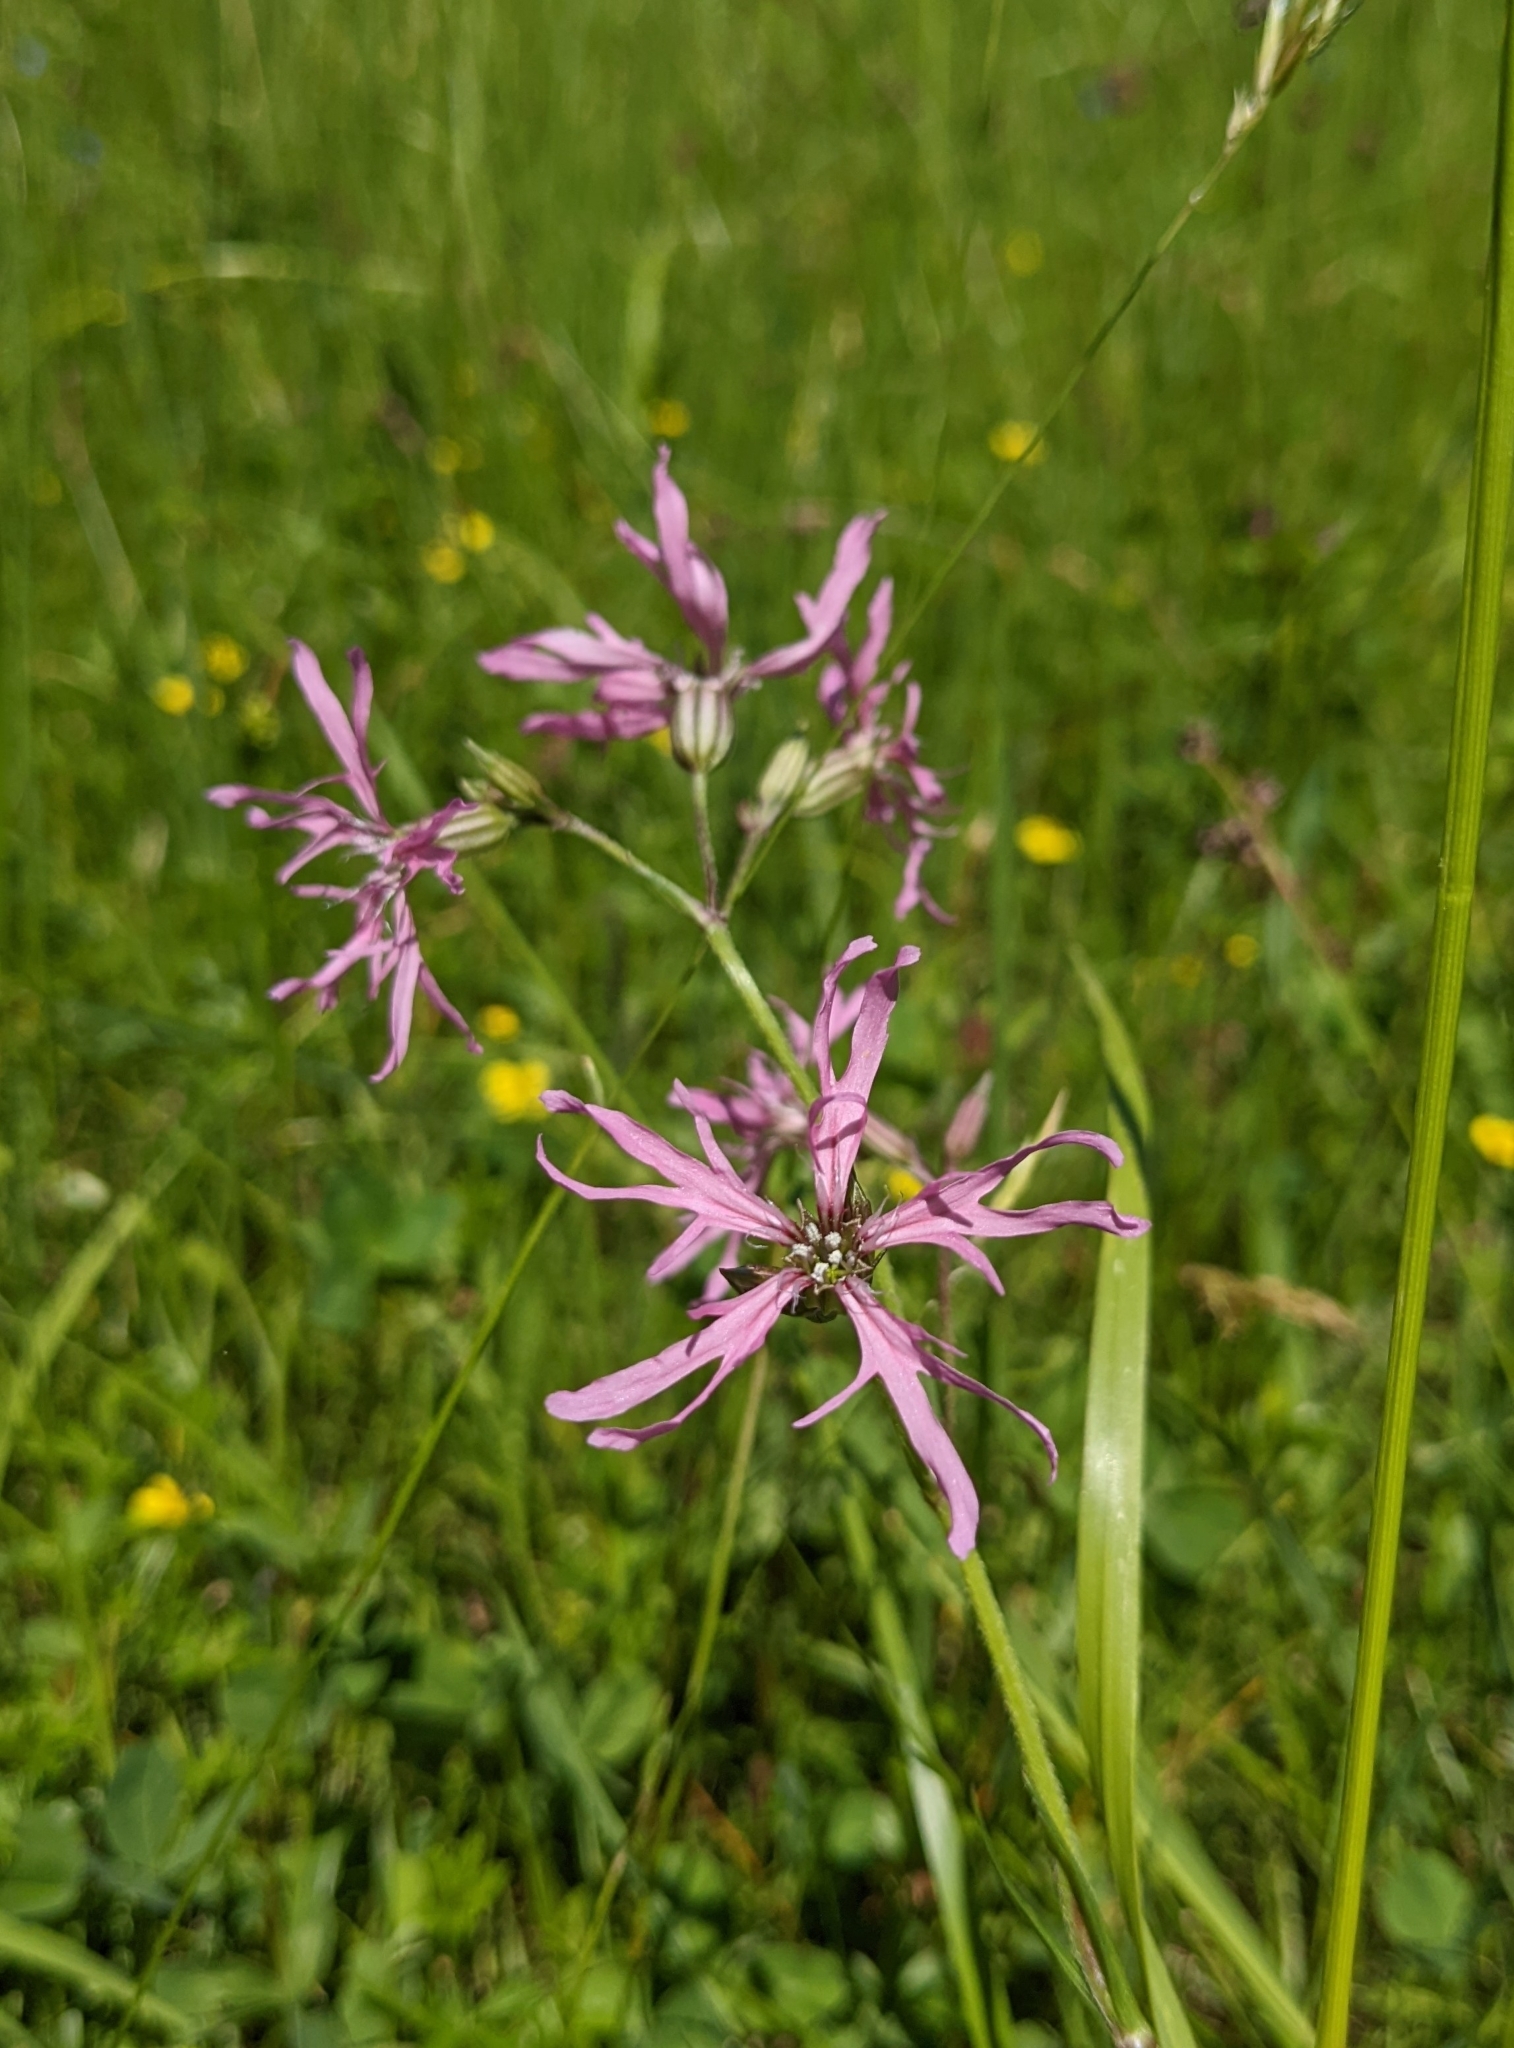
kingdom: Plantae
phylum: Tracheophyta
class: Magnoliopsida
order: Caryophyllales
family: Caryophyllaceae
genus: Silene
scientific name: Silene flos-cuculi
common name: Ragged-robin
